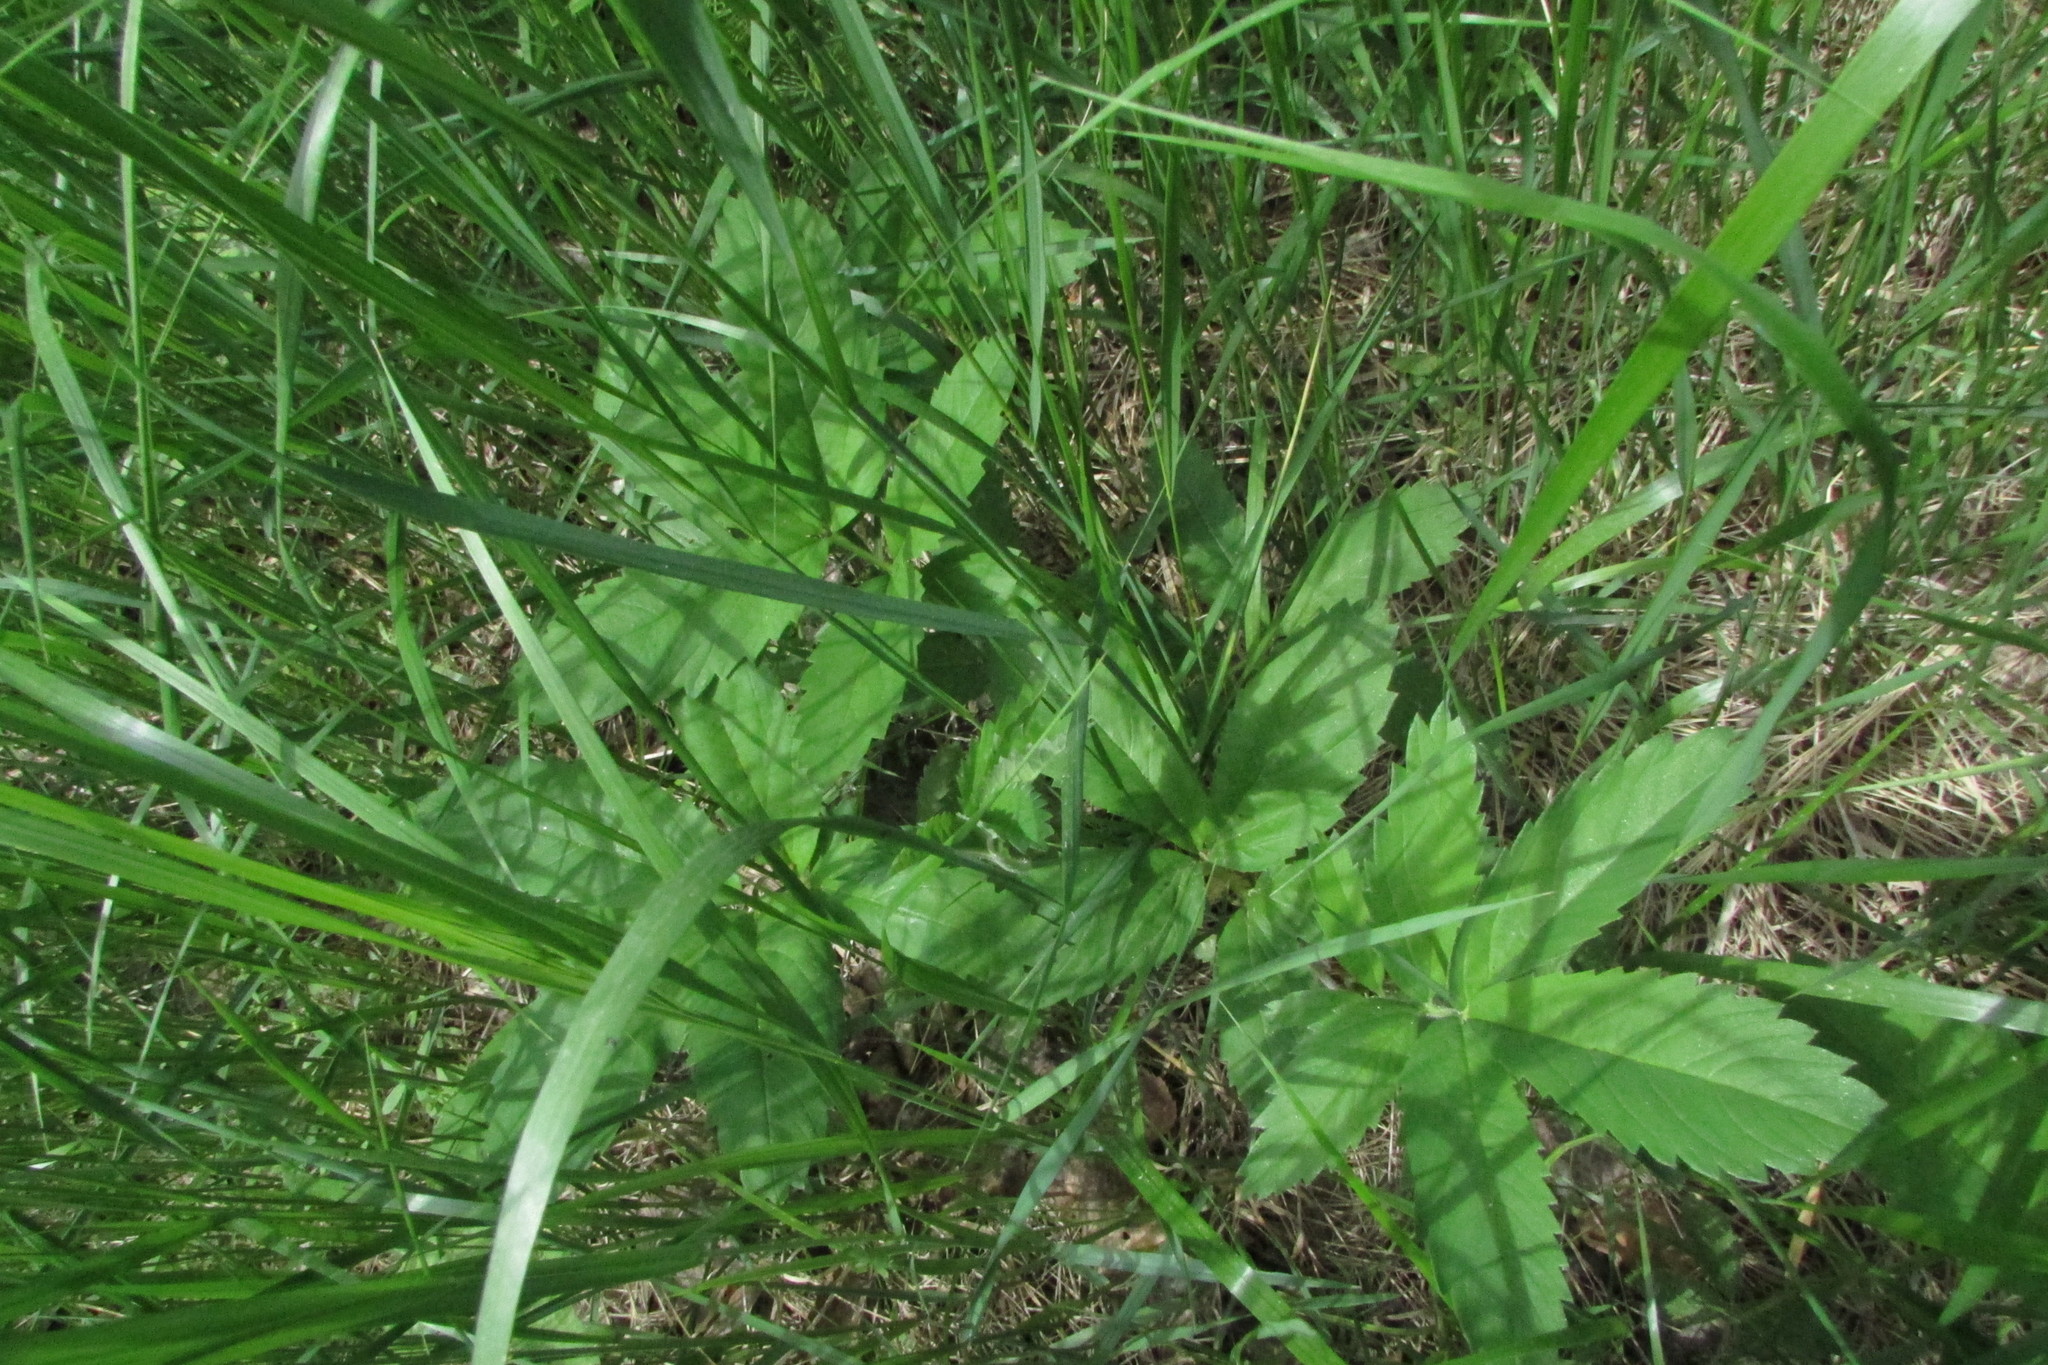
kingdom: Plantae
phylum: Tracheophyta
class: Magnoliopsida
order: Rosales
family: Rosaceae
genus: Comarum
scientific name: Comarum palustre
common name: Marsh cinquefoil
